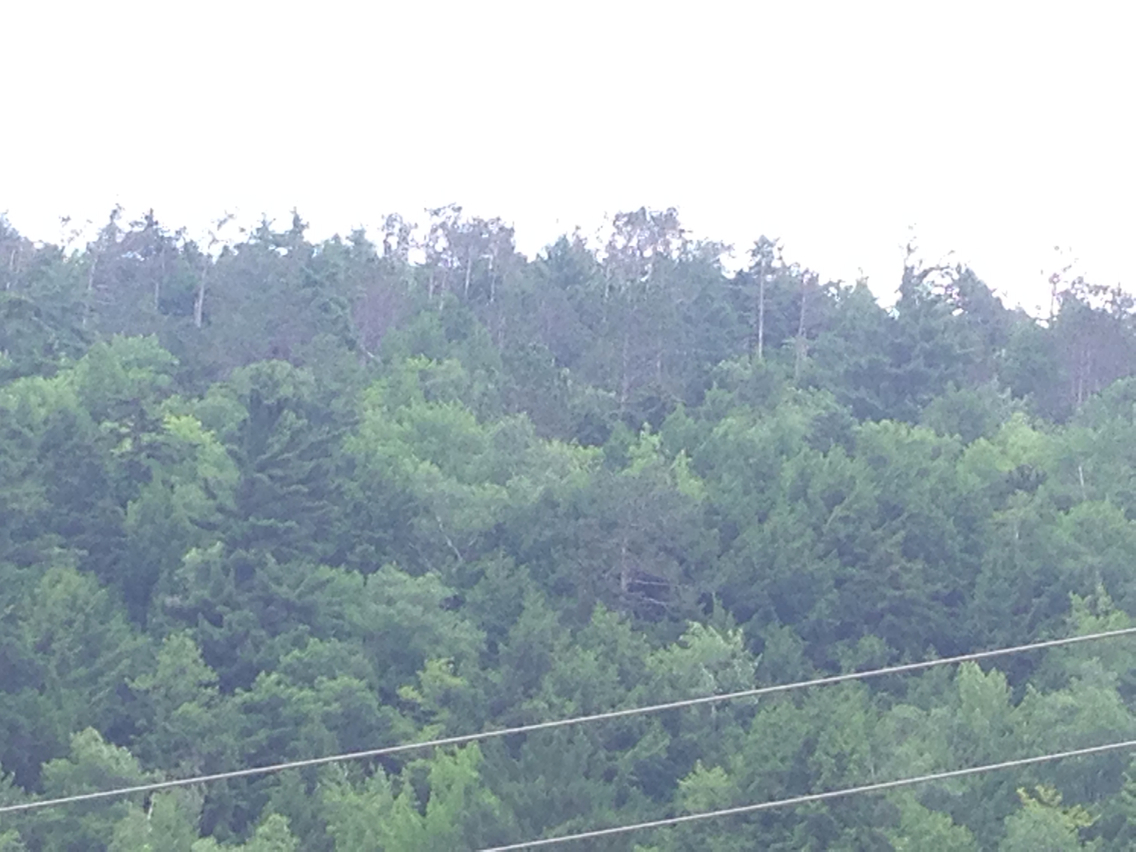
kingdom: Plantae
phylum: Tracheophyta
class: Pinopsida
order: Pinales
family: Pinaceae
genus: Pinus
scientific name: Pinus resinosa
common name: Norway pine
